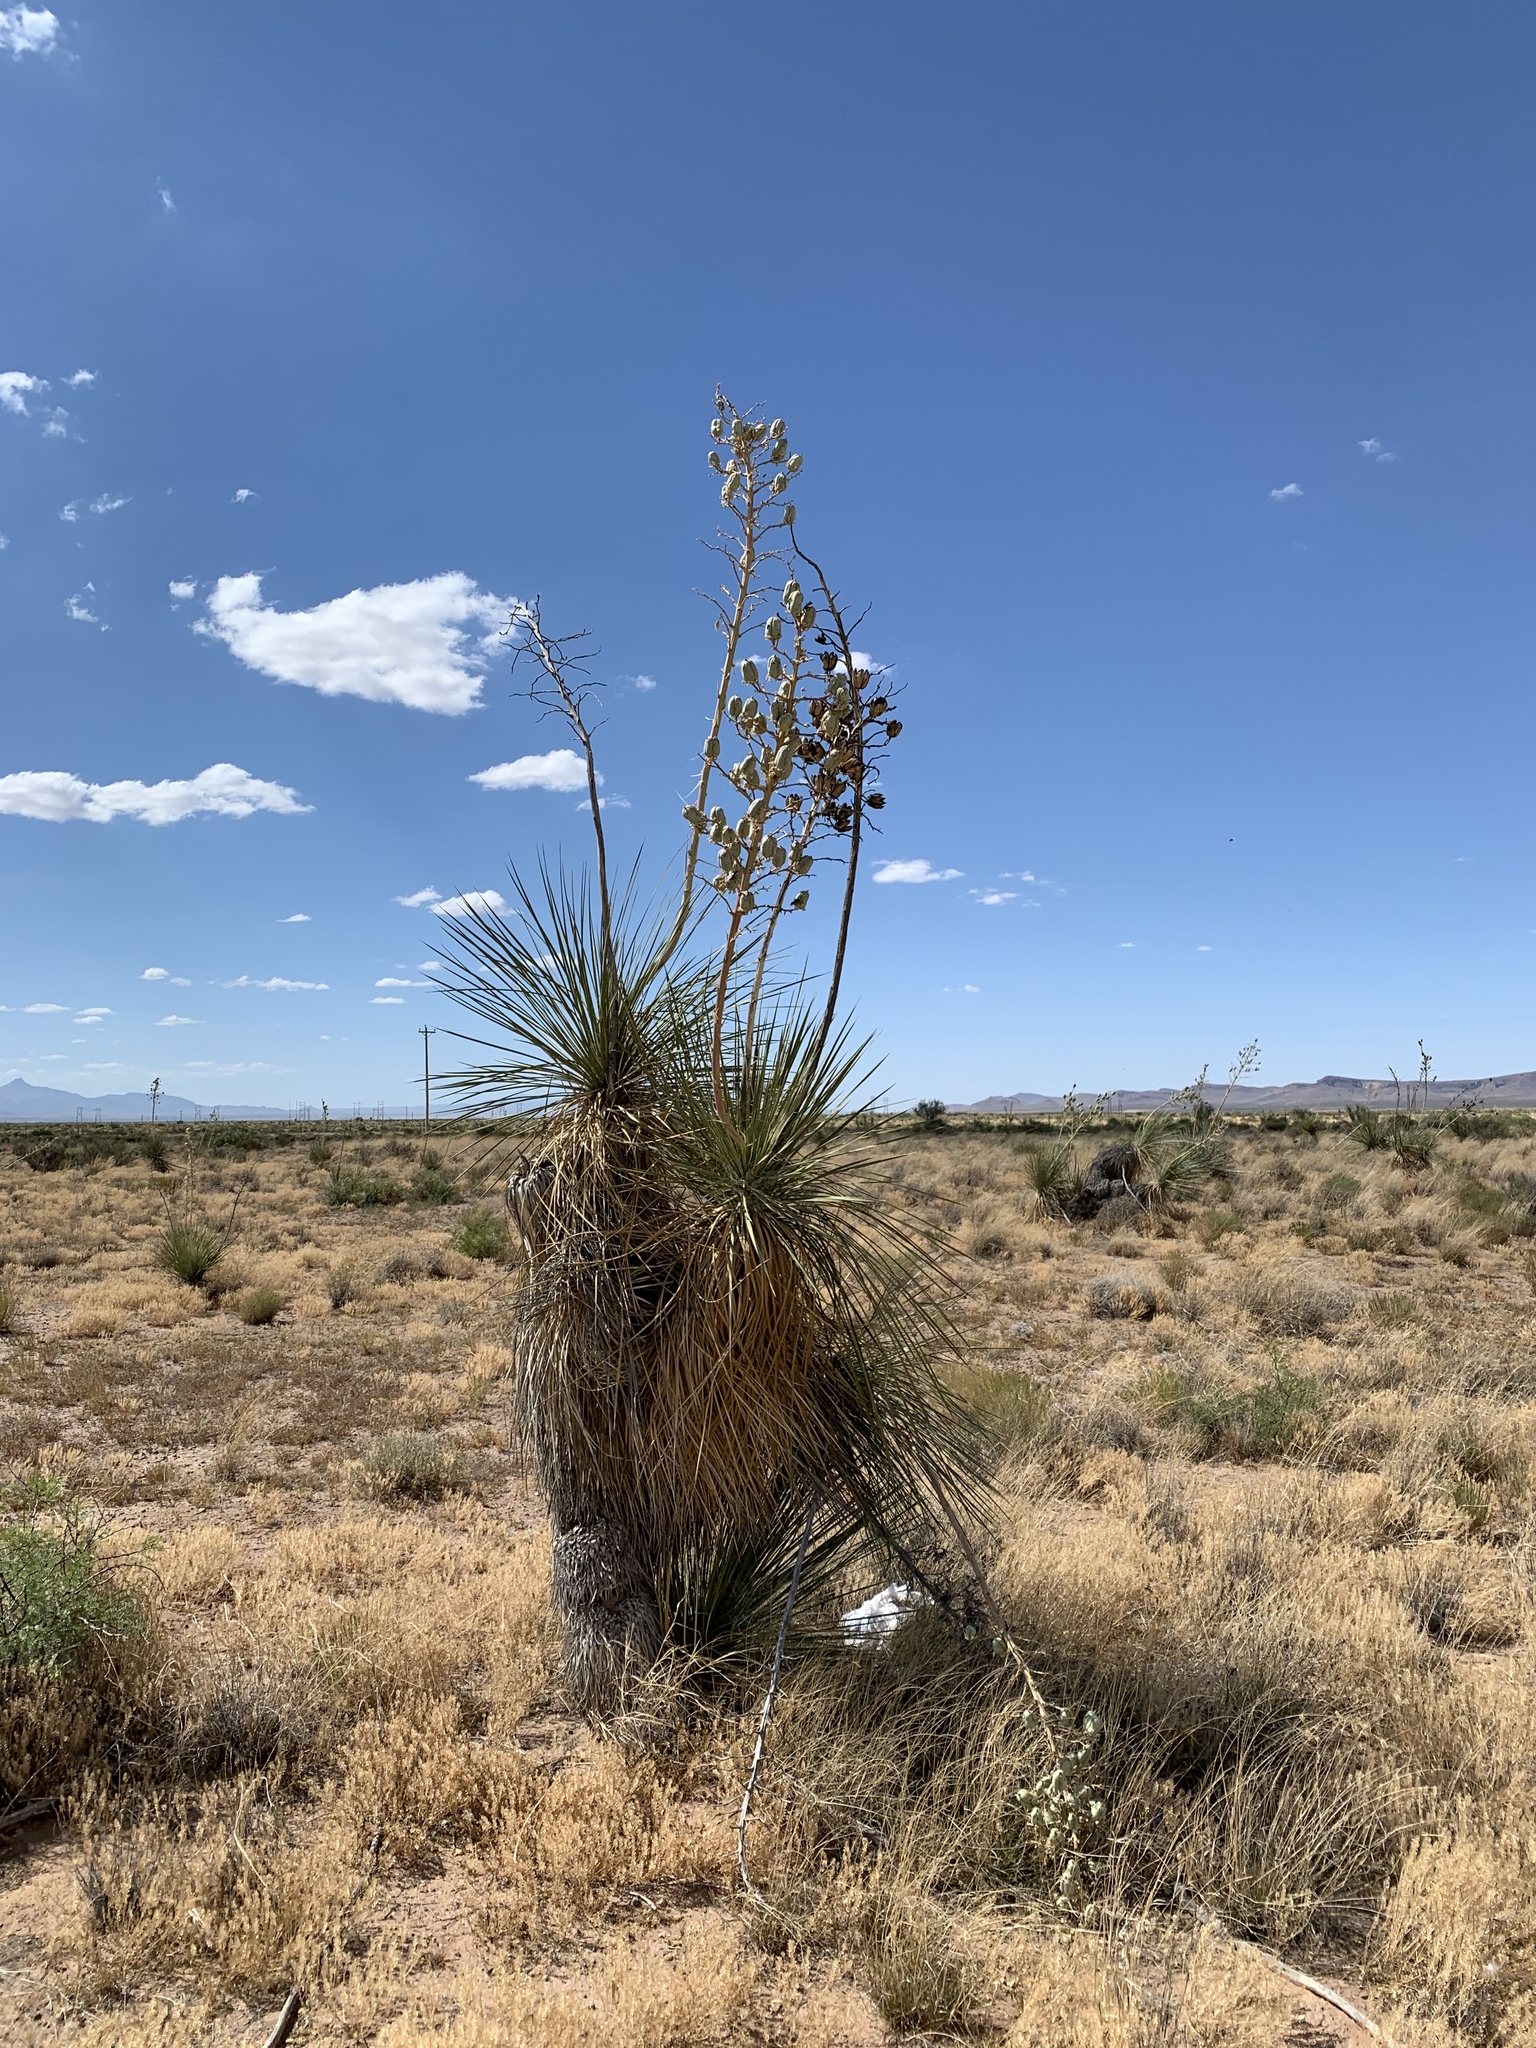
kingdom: Plantae
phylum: Tracheophyta
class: Liliopsida
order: Asparagales
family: Asparagaceae
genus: Yucca
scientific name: Yucca elata
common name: Palmella
